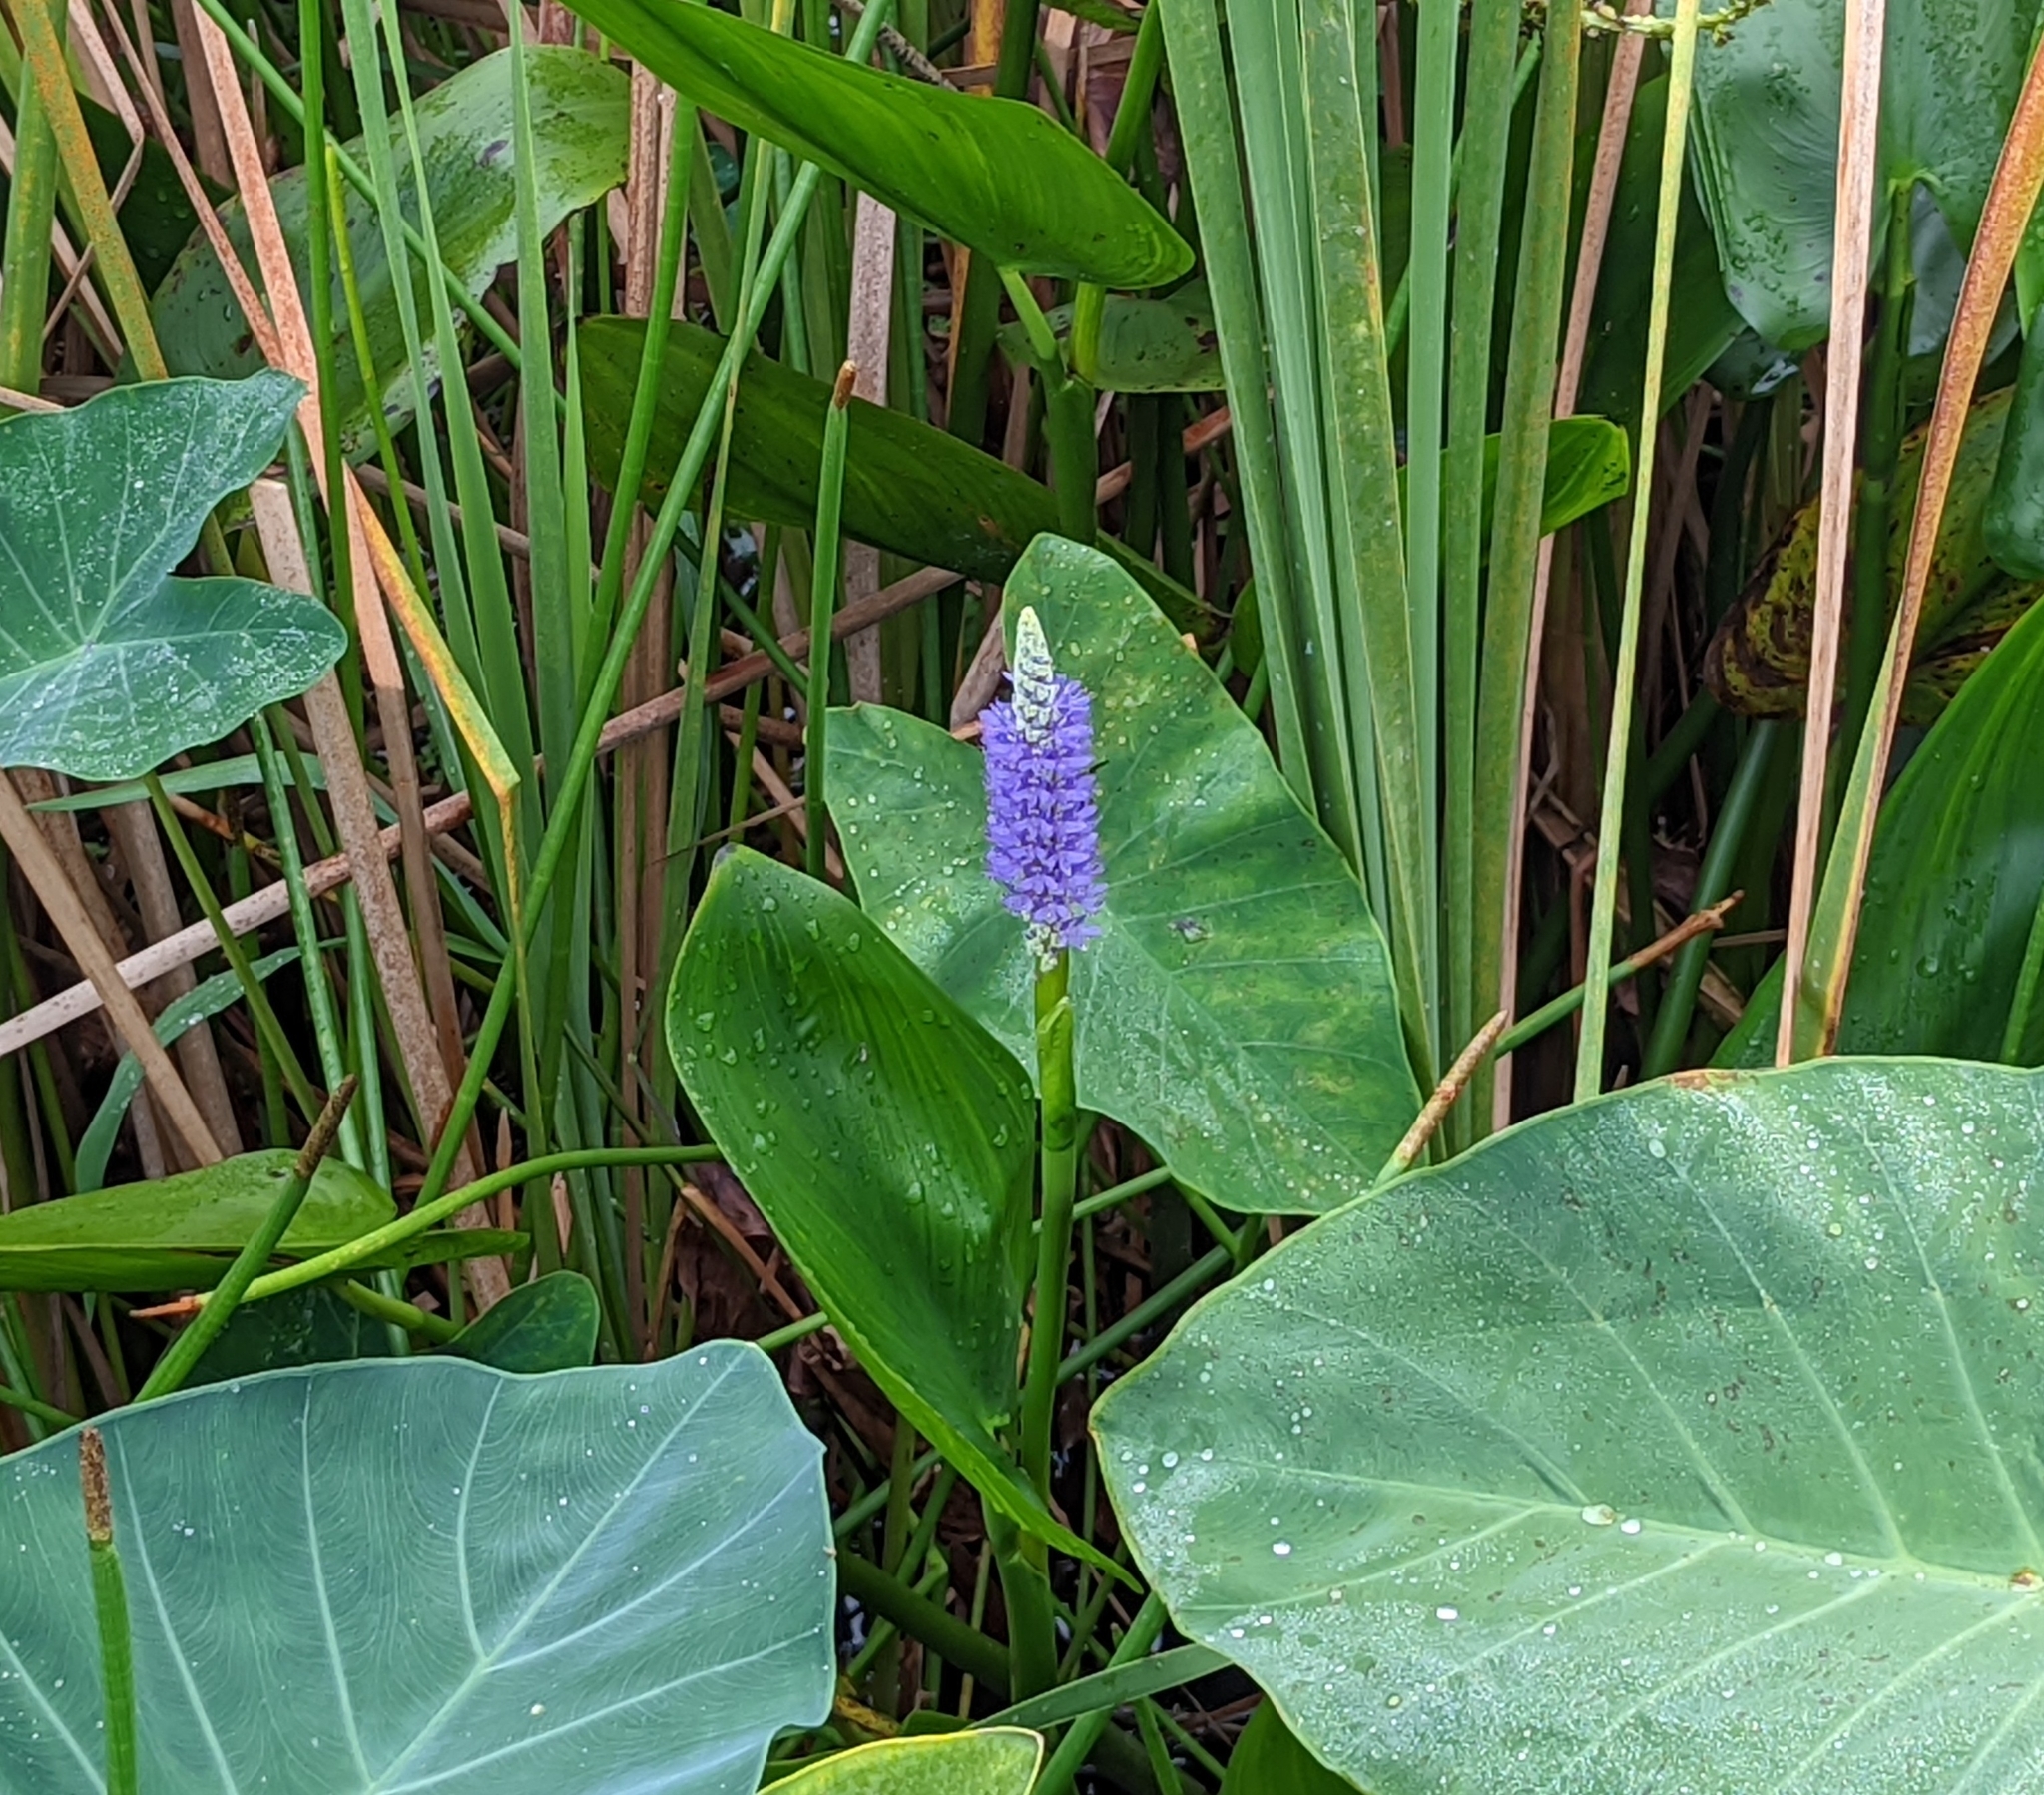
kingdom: Plantae
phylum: Tracheophyta
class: Liliopsida
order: Commelinales
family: Pontederiaceae
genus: Pontederia
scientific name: Pontederia cordata
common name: Pickerelweed
